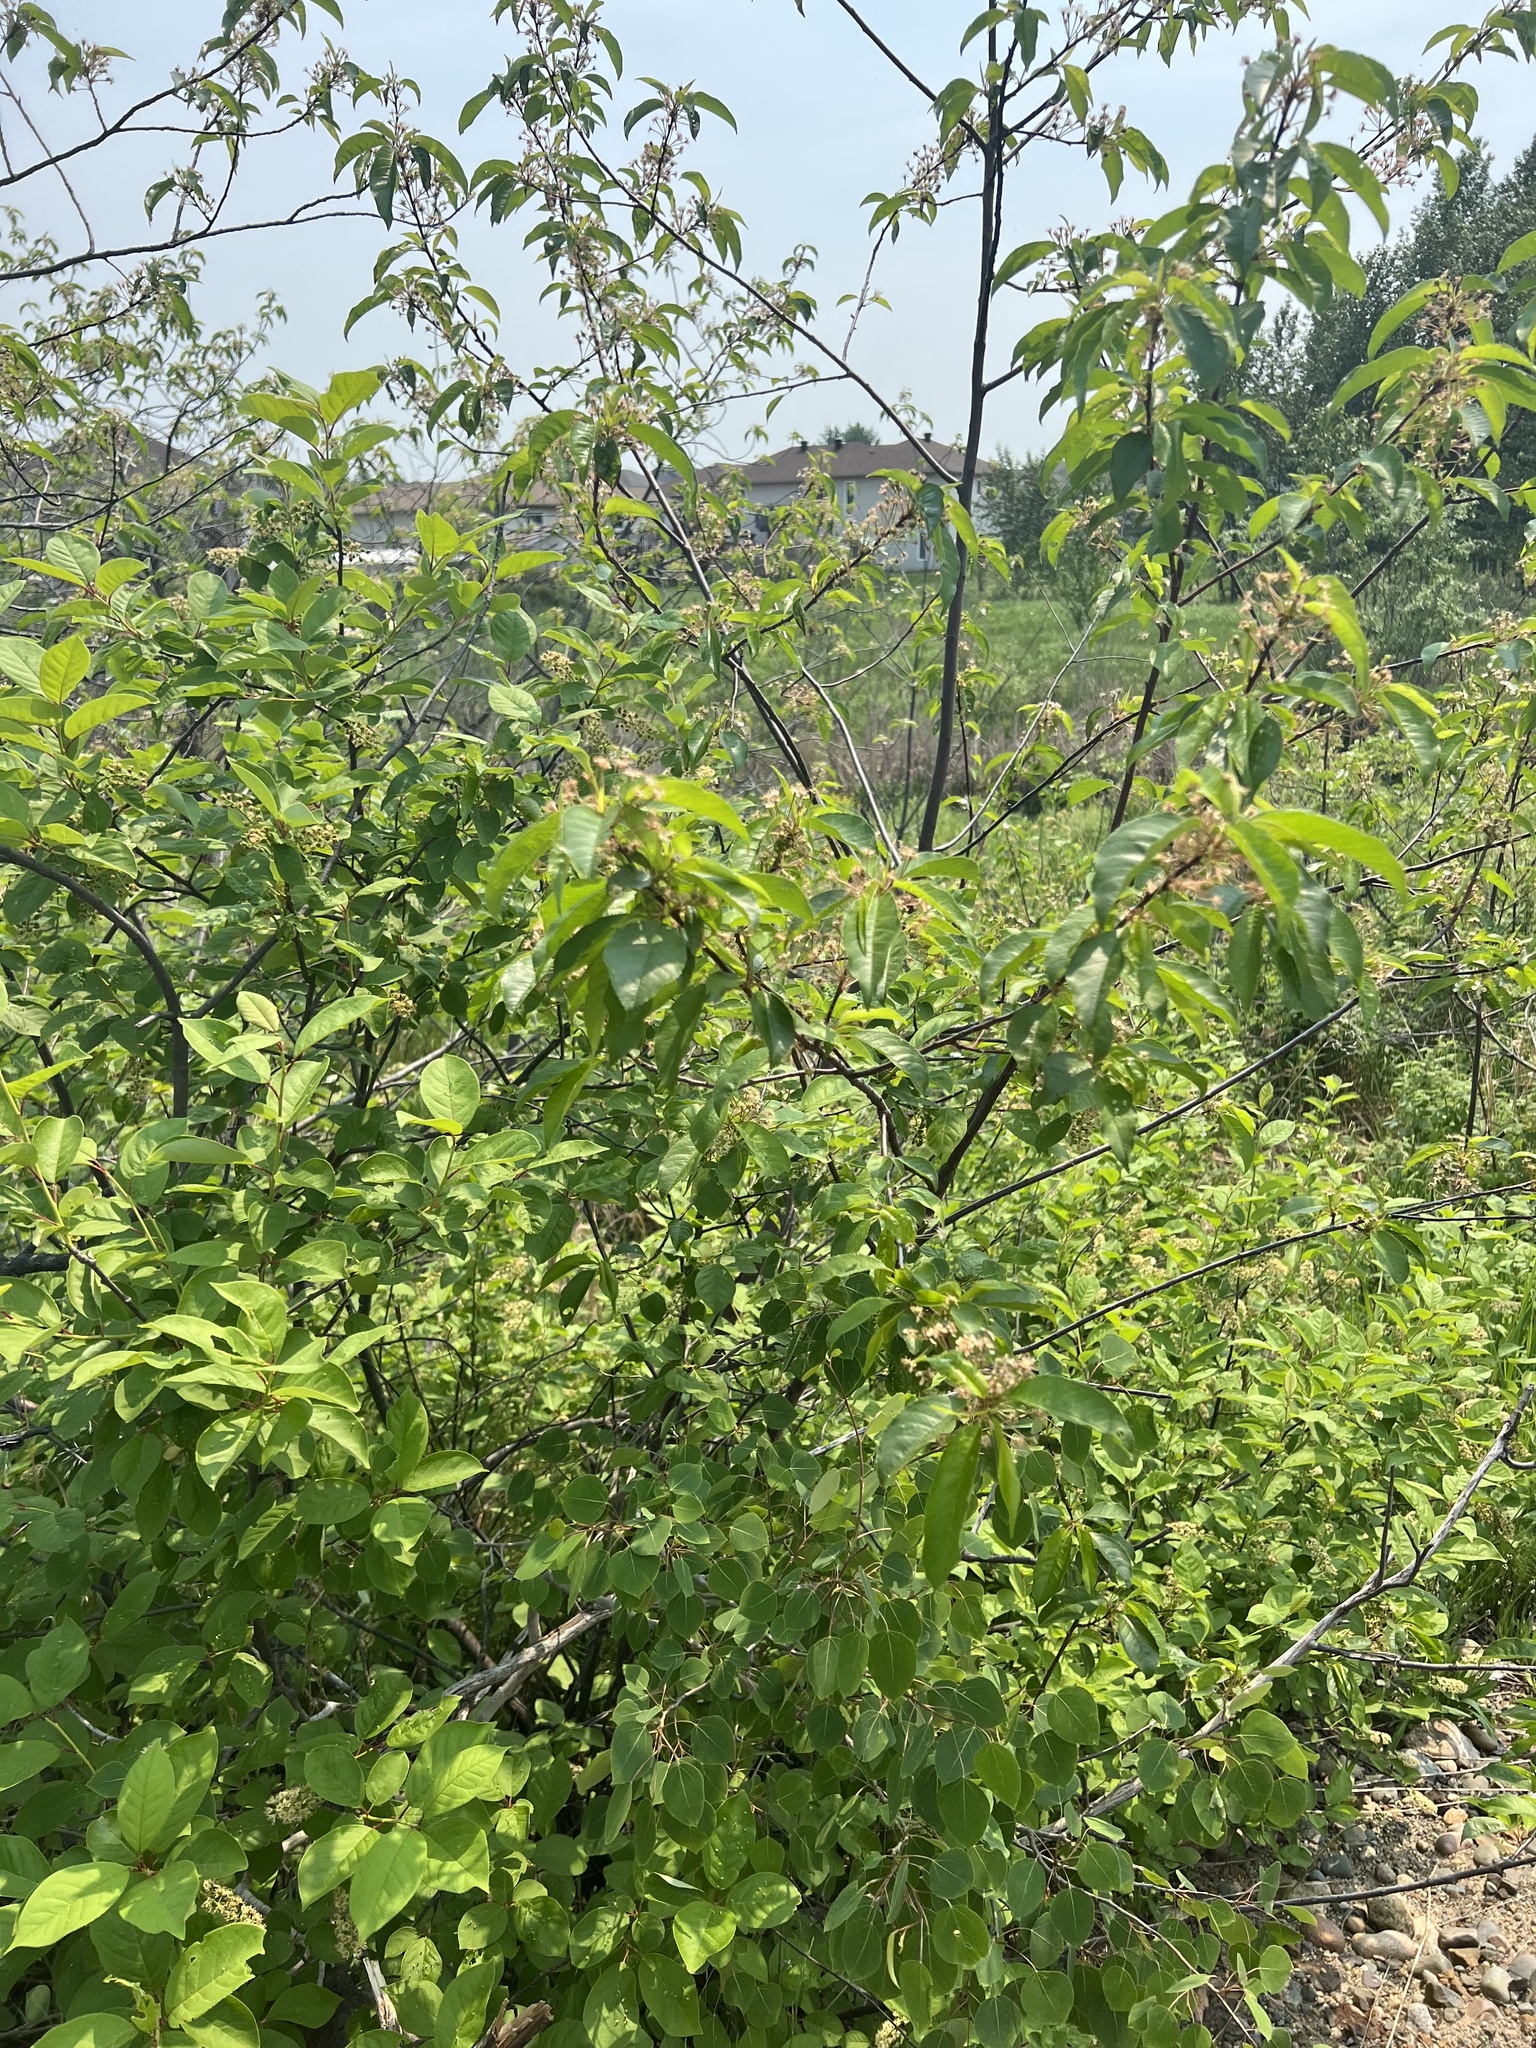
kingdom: Plantae
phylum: Tracheophyta
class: Magnoliopsida
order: Rosales
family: Rosaceae
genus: Prunus
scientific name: Prunus pensylvanica
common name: Pin cherry
